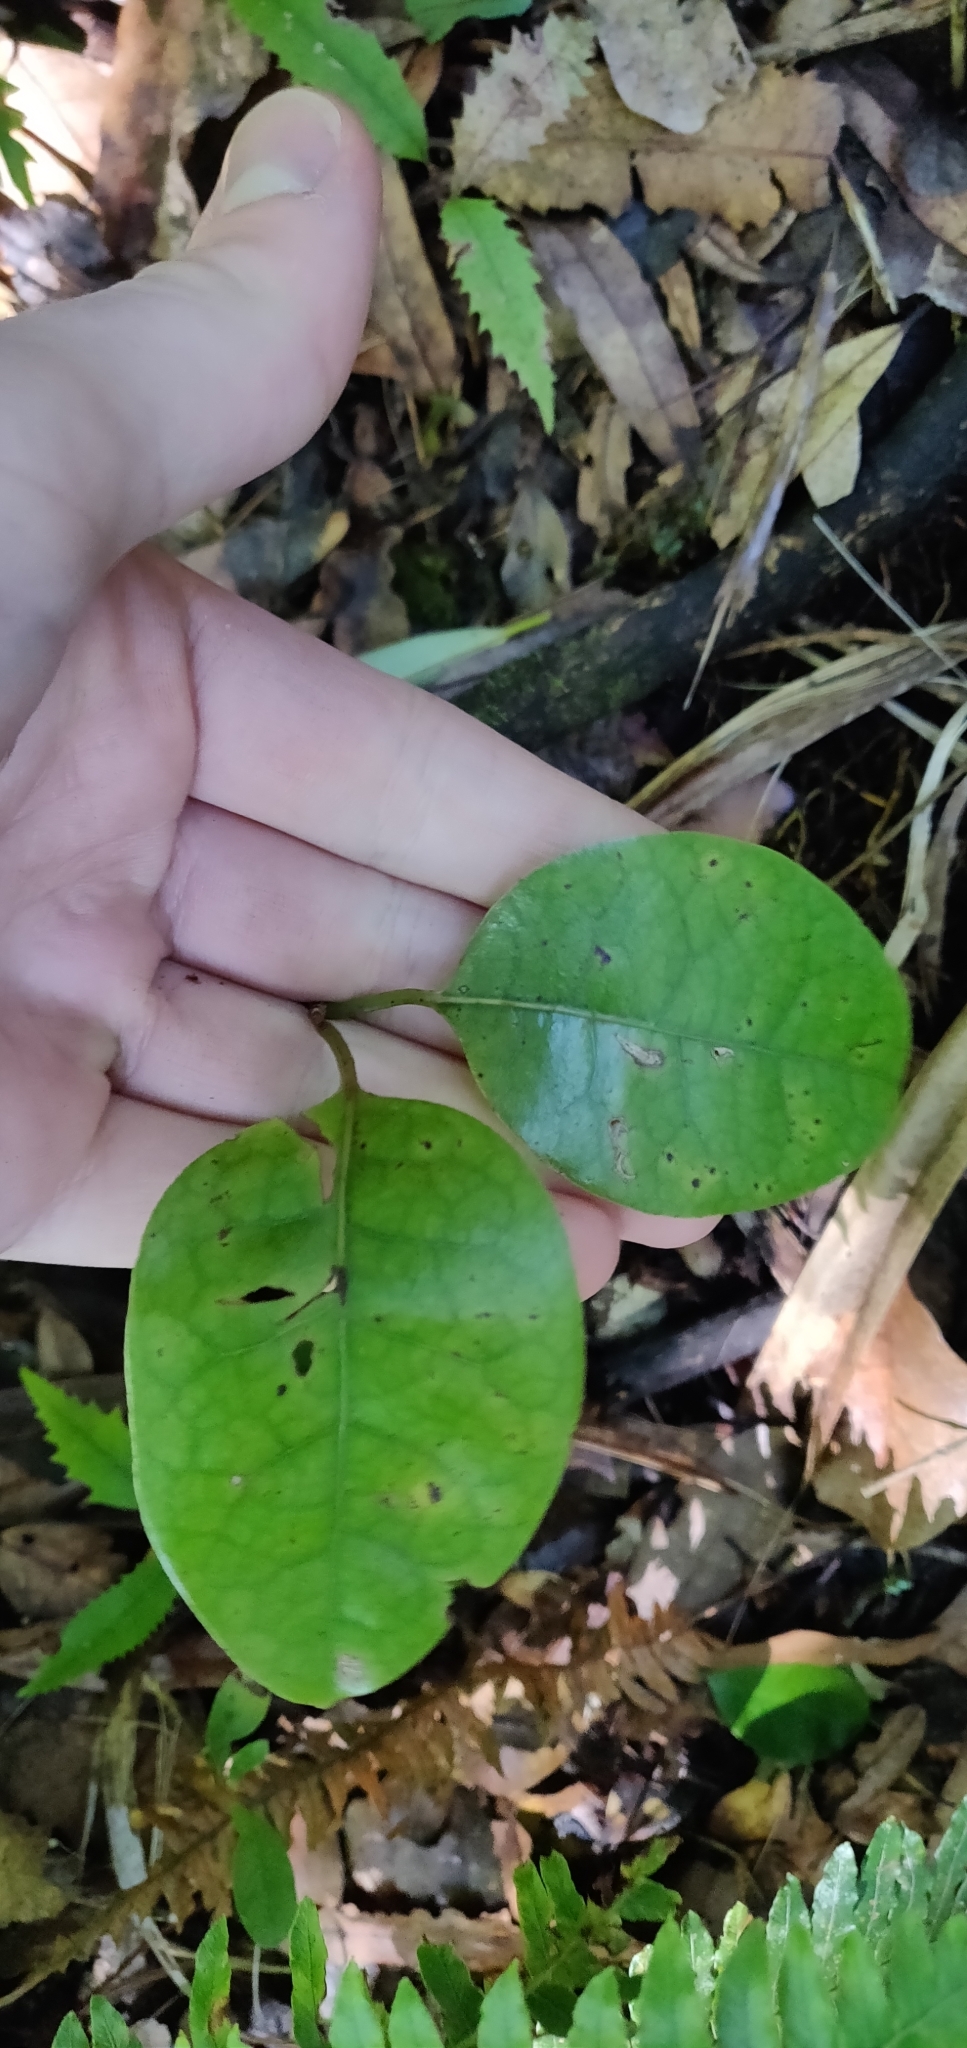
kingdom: Plantae
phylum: Tracheophyta
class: Magnoliopsida
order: Laurales
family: Lauraceae
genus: Litsea
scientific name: Litsea calicaris
